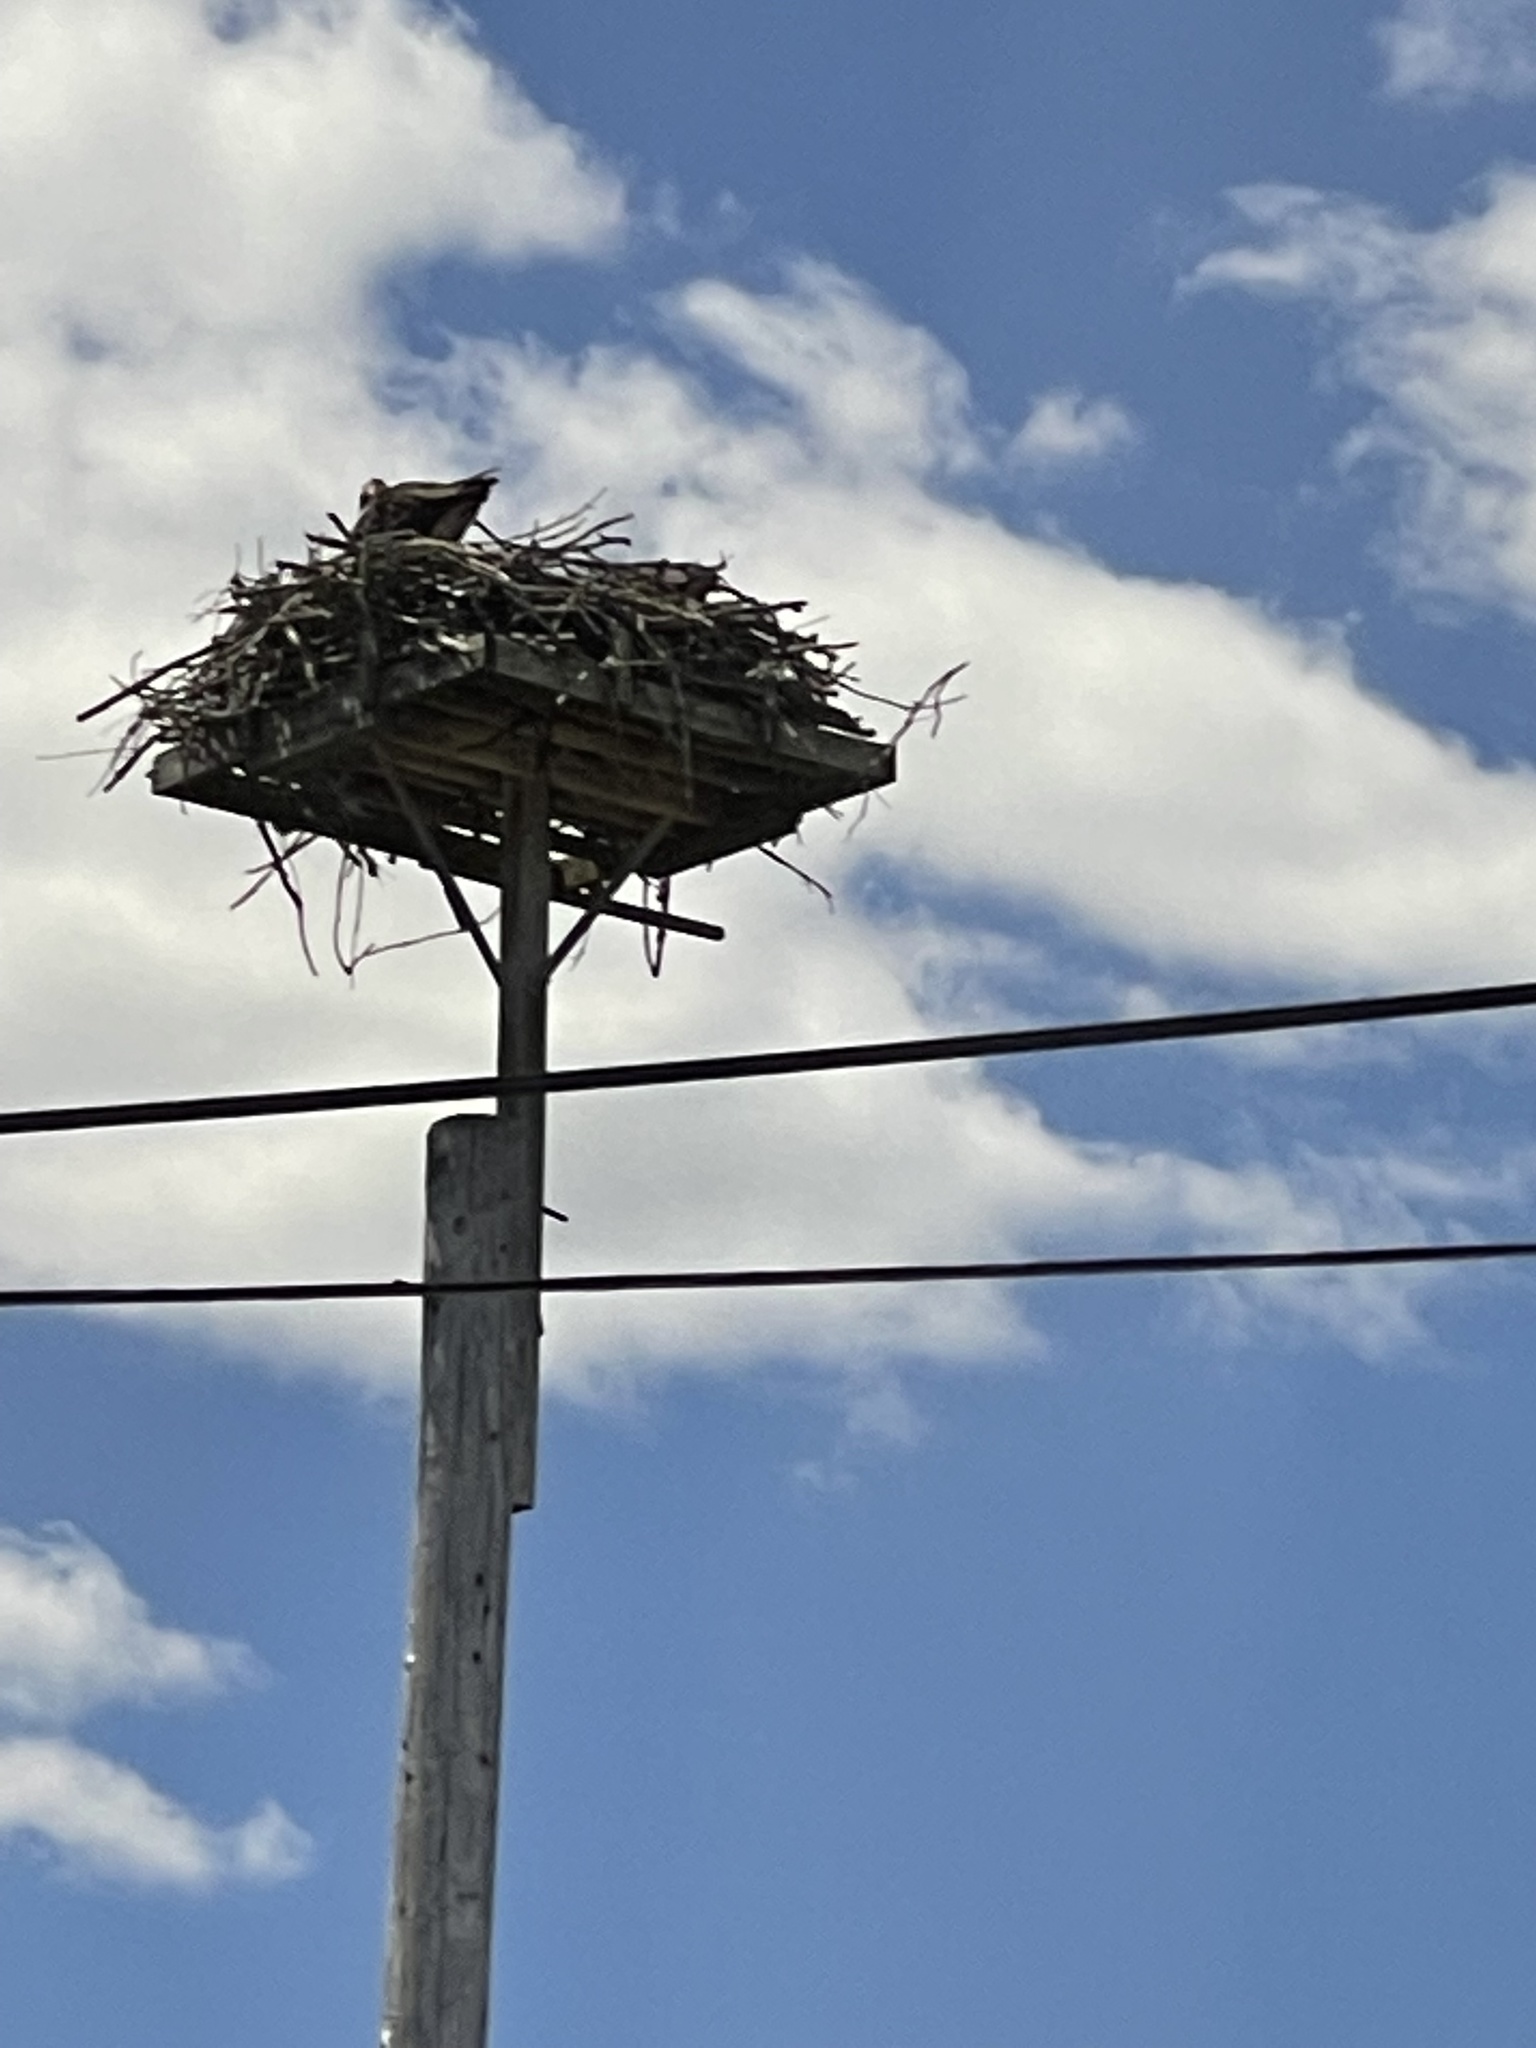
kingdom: Animalia
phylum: Chordata
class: Aves
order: Accipitriformes
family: Pandionidae
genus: Pandion
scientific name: Pandion haliaetus
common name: Osprey
